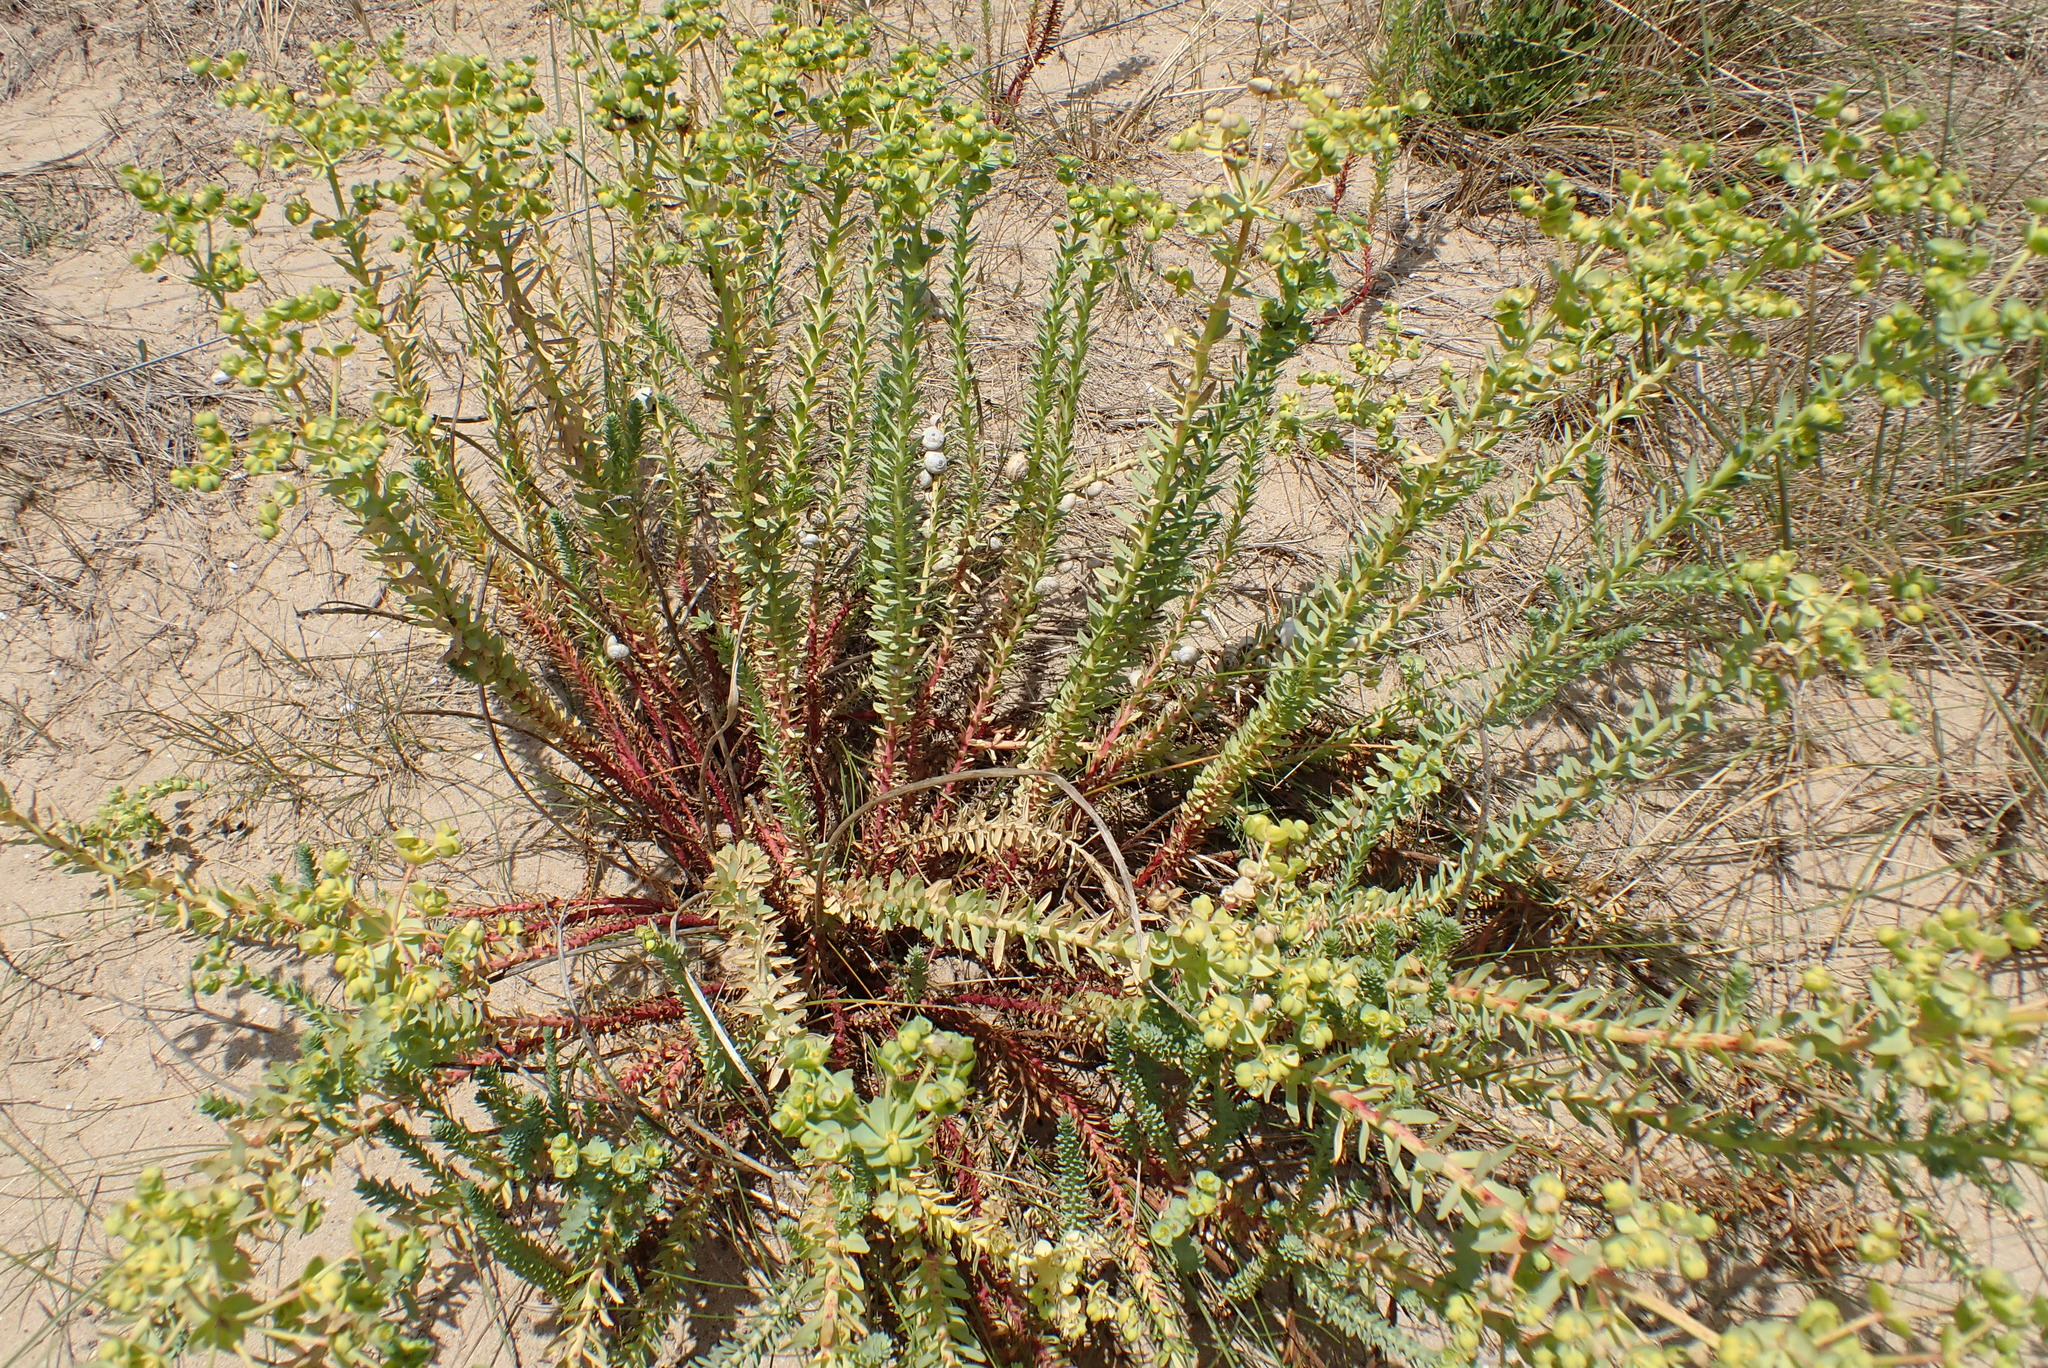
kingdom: Plantae
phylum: Tracheophyta
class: Magnoliopsida
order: Malpighiales
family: Euphorbiaceae
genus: Euphorbia
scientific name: Euphorbia paralias
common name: Sea spurge
